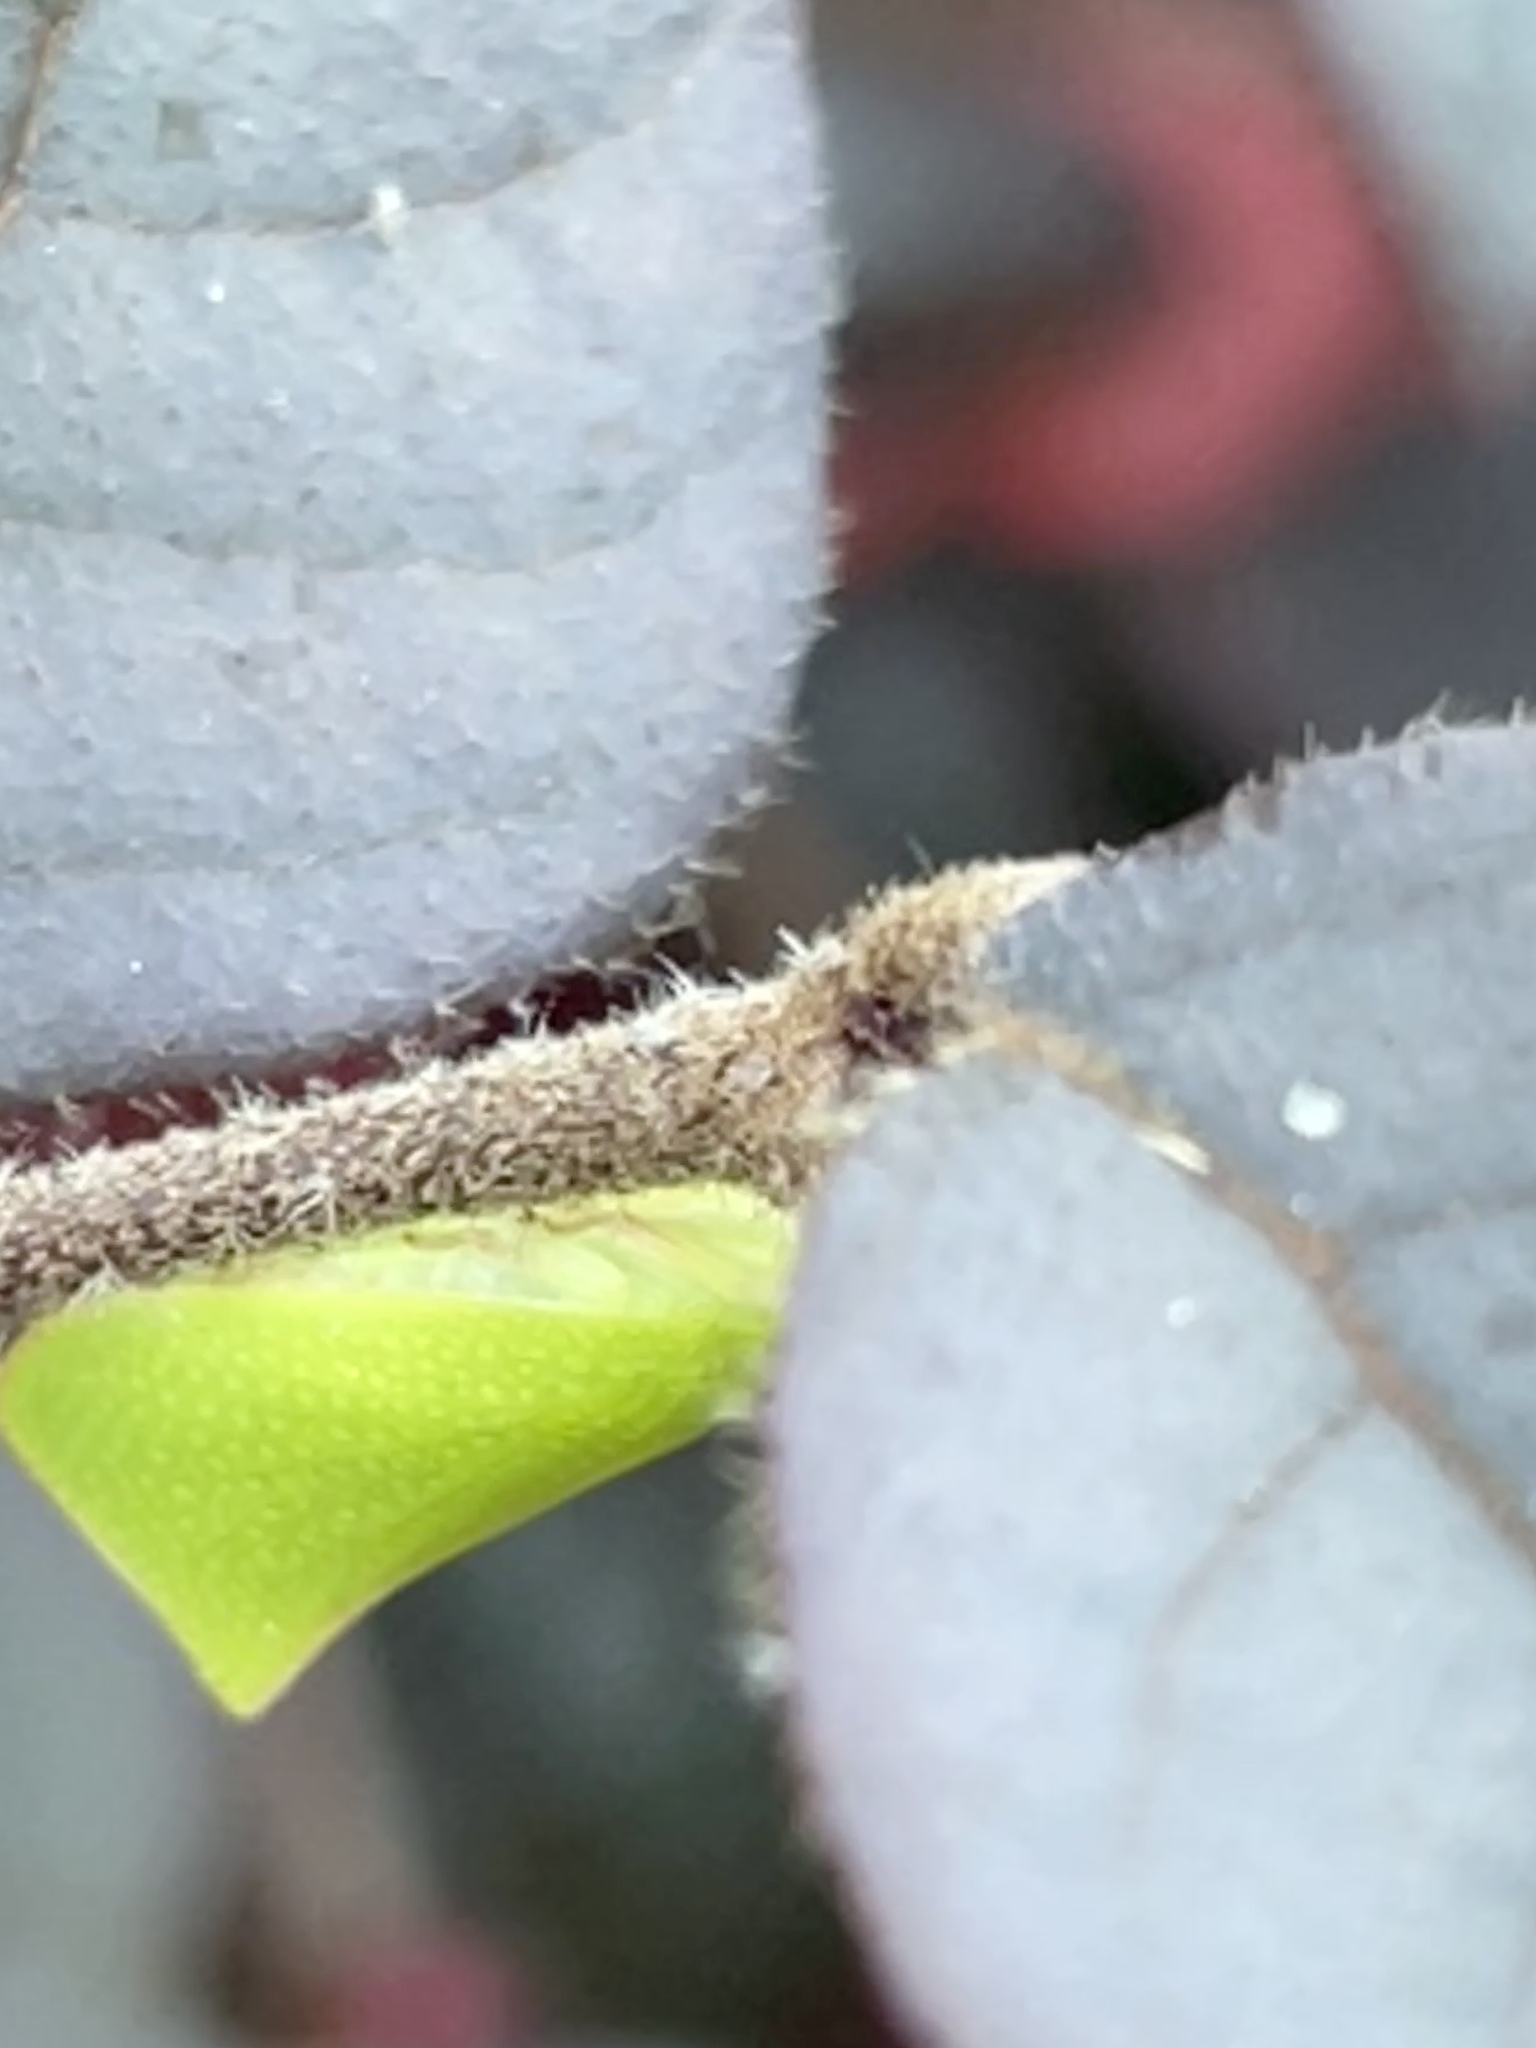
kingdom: Animalia
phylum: Arthropoda
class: Insecta
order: Hemiptera
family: Flatidae
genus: Siphanta
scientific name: Siphanta
